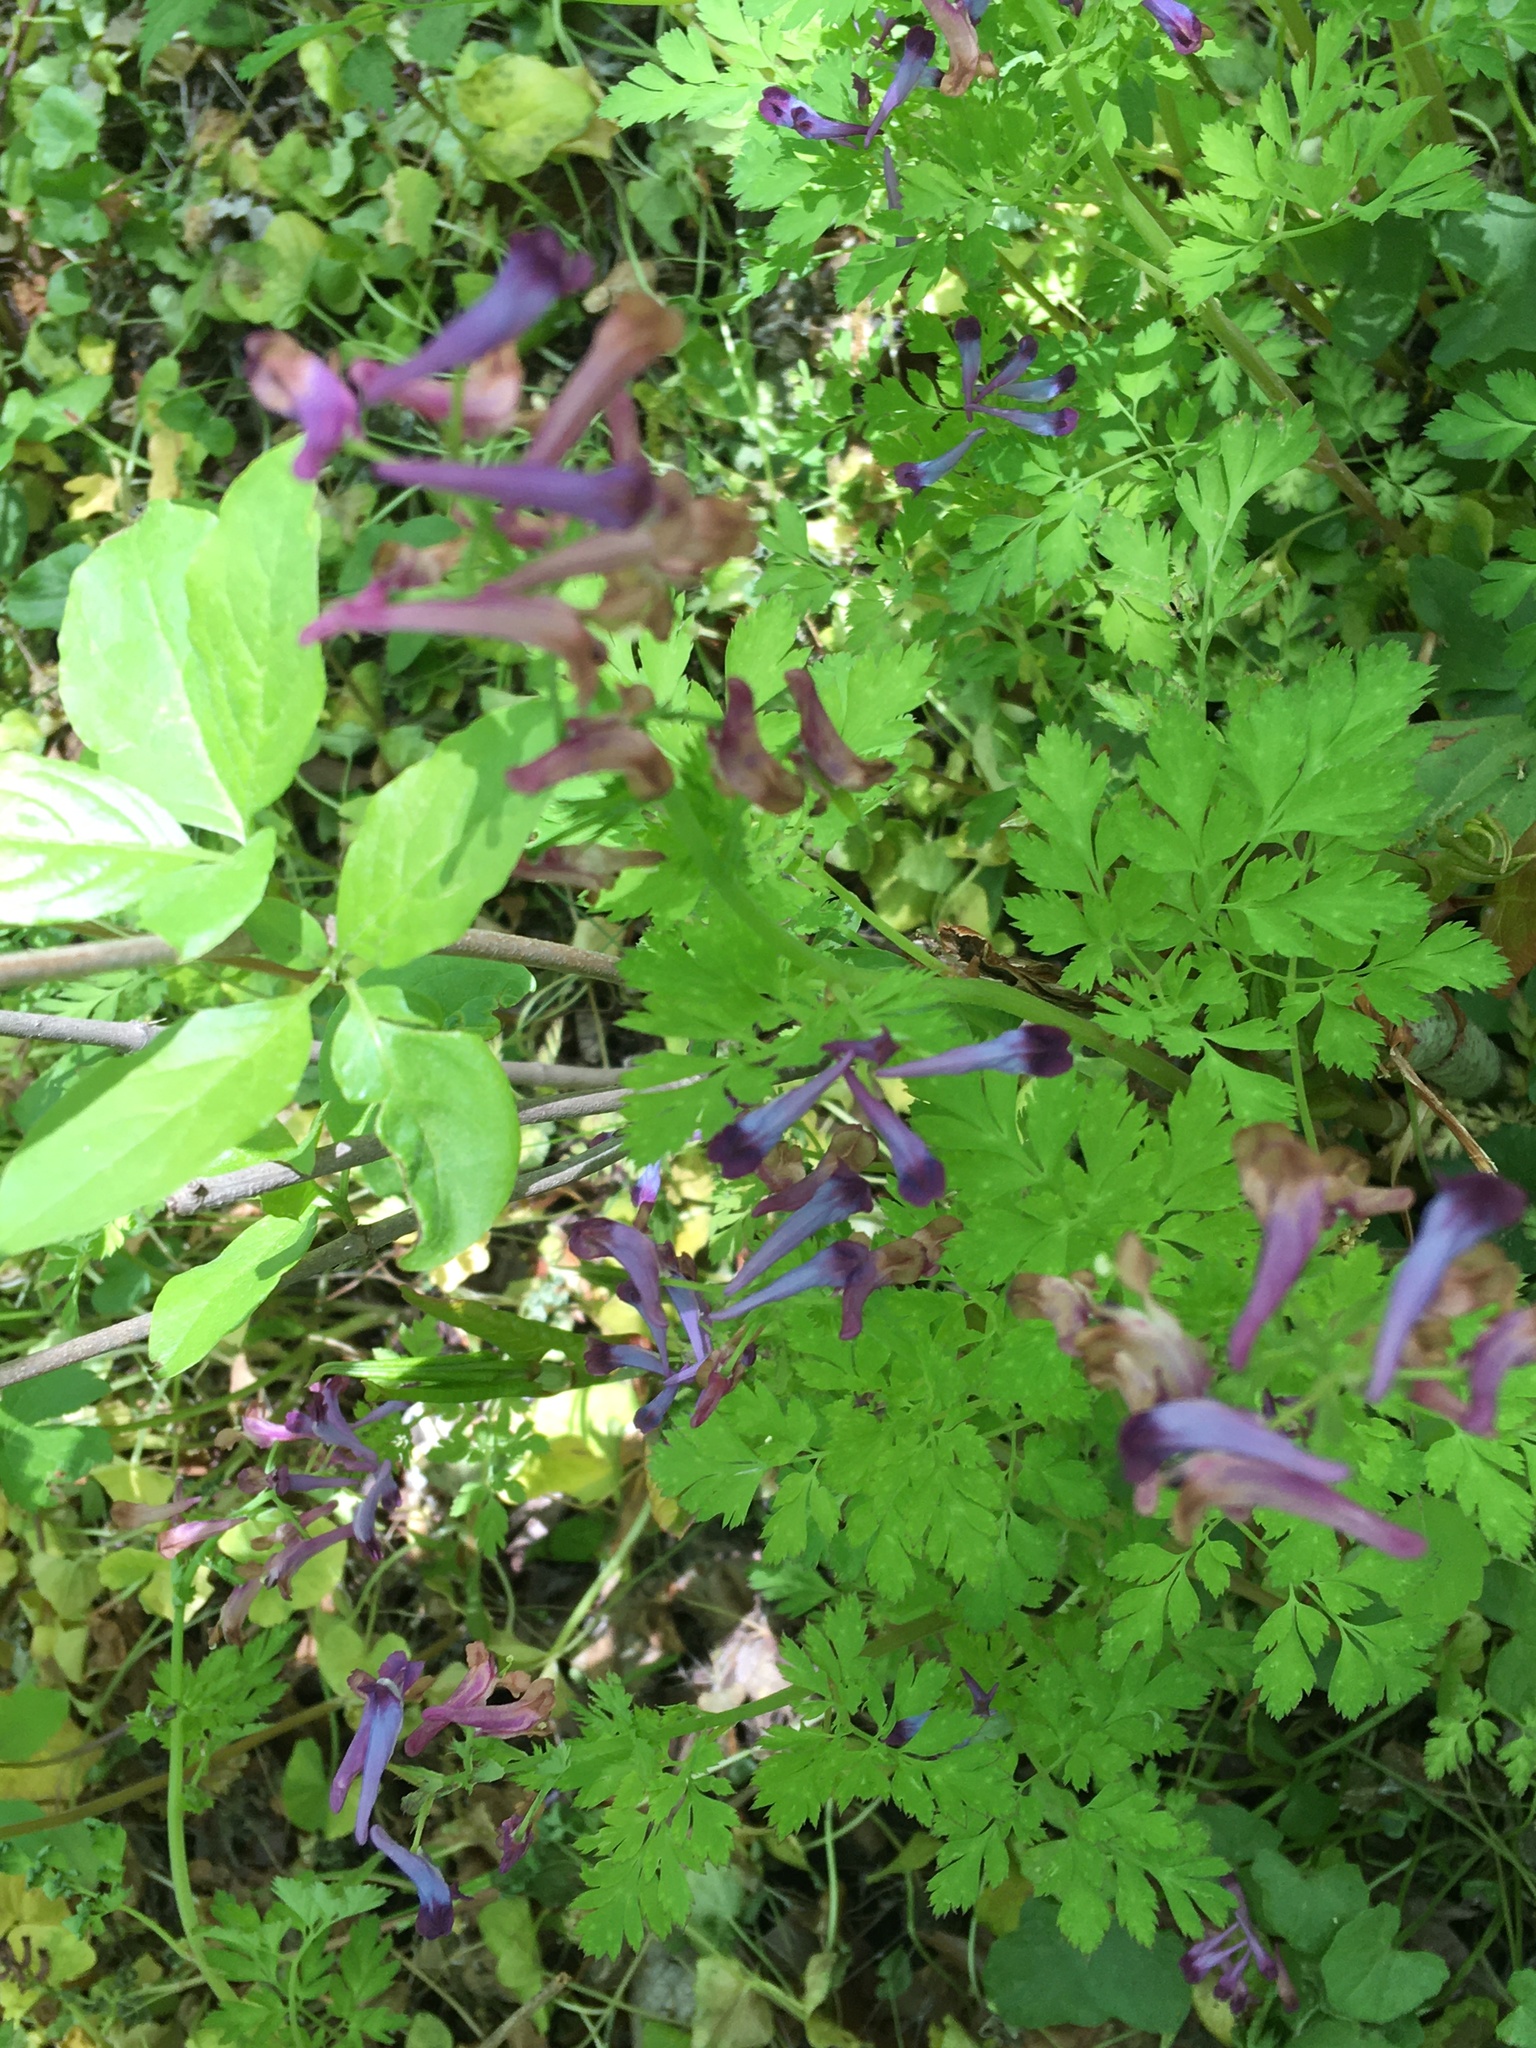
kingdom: Plantae
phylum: Tracheophyta
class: Magnoliopsida
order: Ranunculales
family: Papaveraceae
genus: Corydalis
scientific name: Corydalis incisa
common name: Incised fumewort
